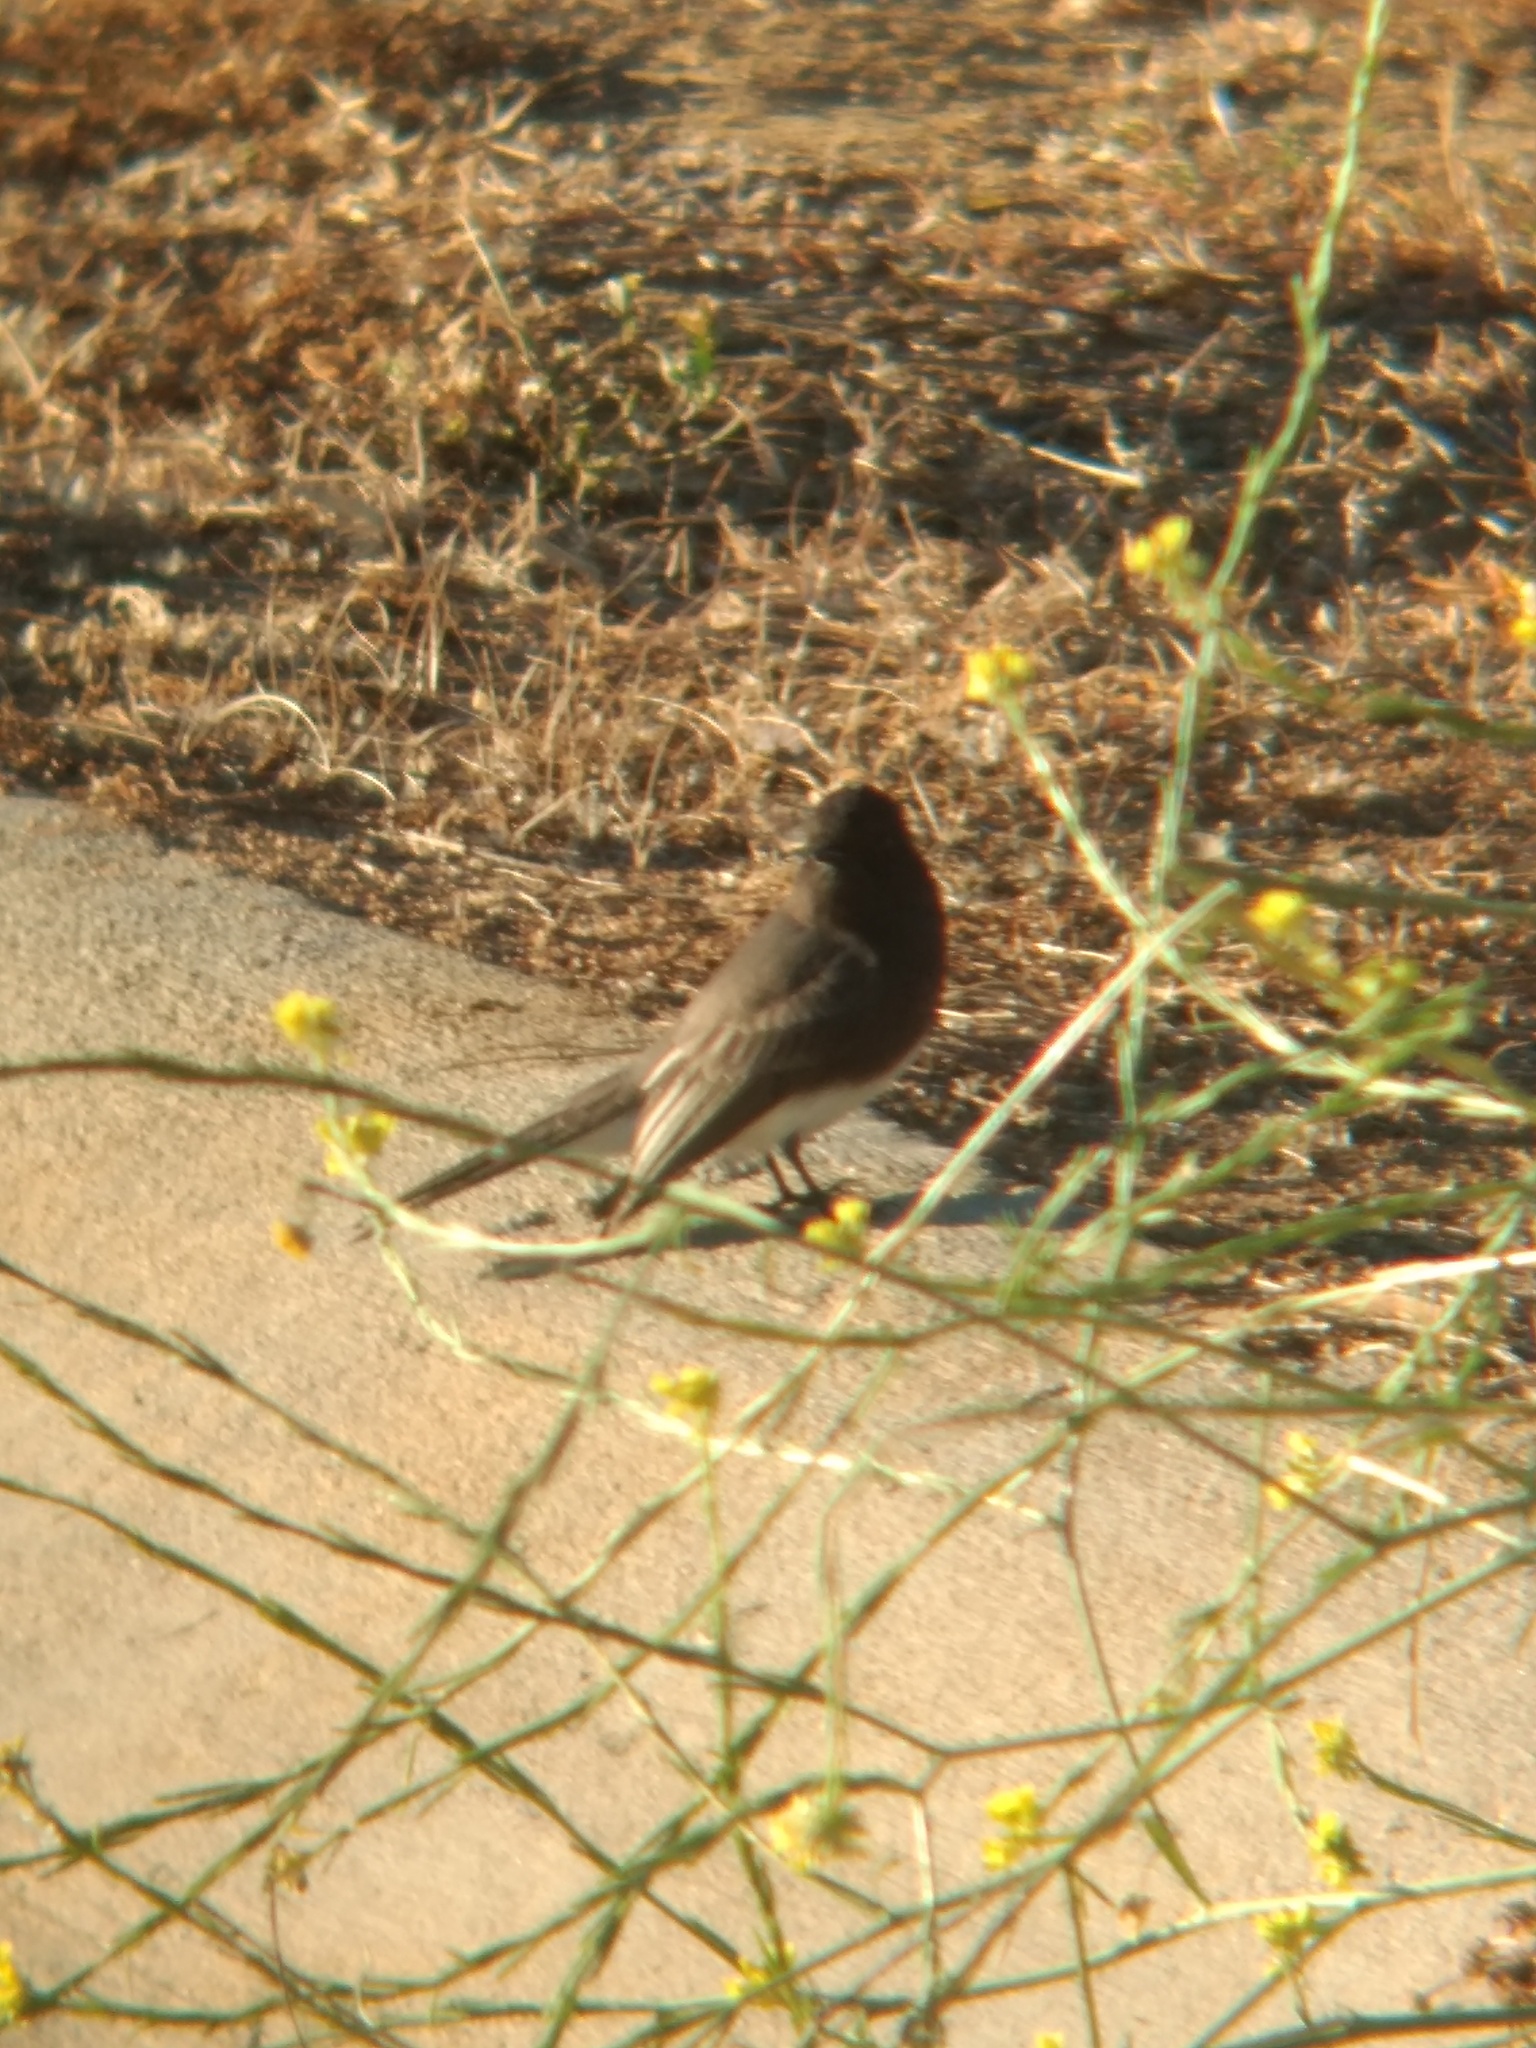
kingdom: Animalia
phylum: Chordata
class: Aves
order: Passeriformes
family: Tyrannidae
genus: Sayornis
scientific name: Sayornis nigricans
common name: Black phoebe
